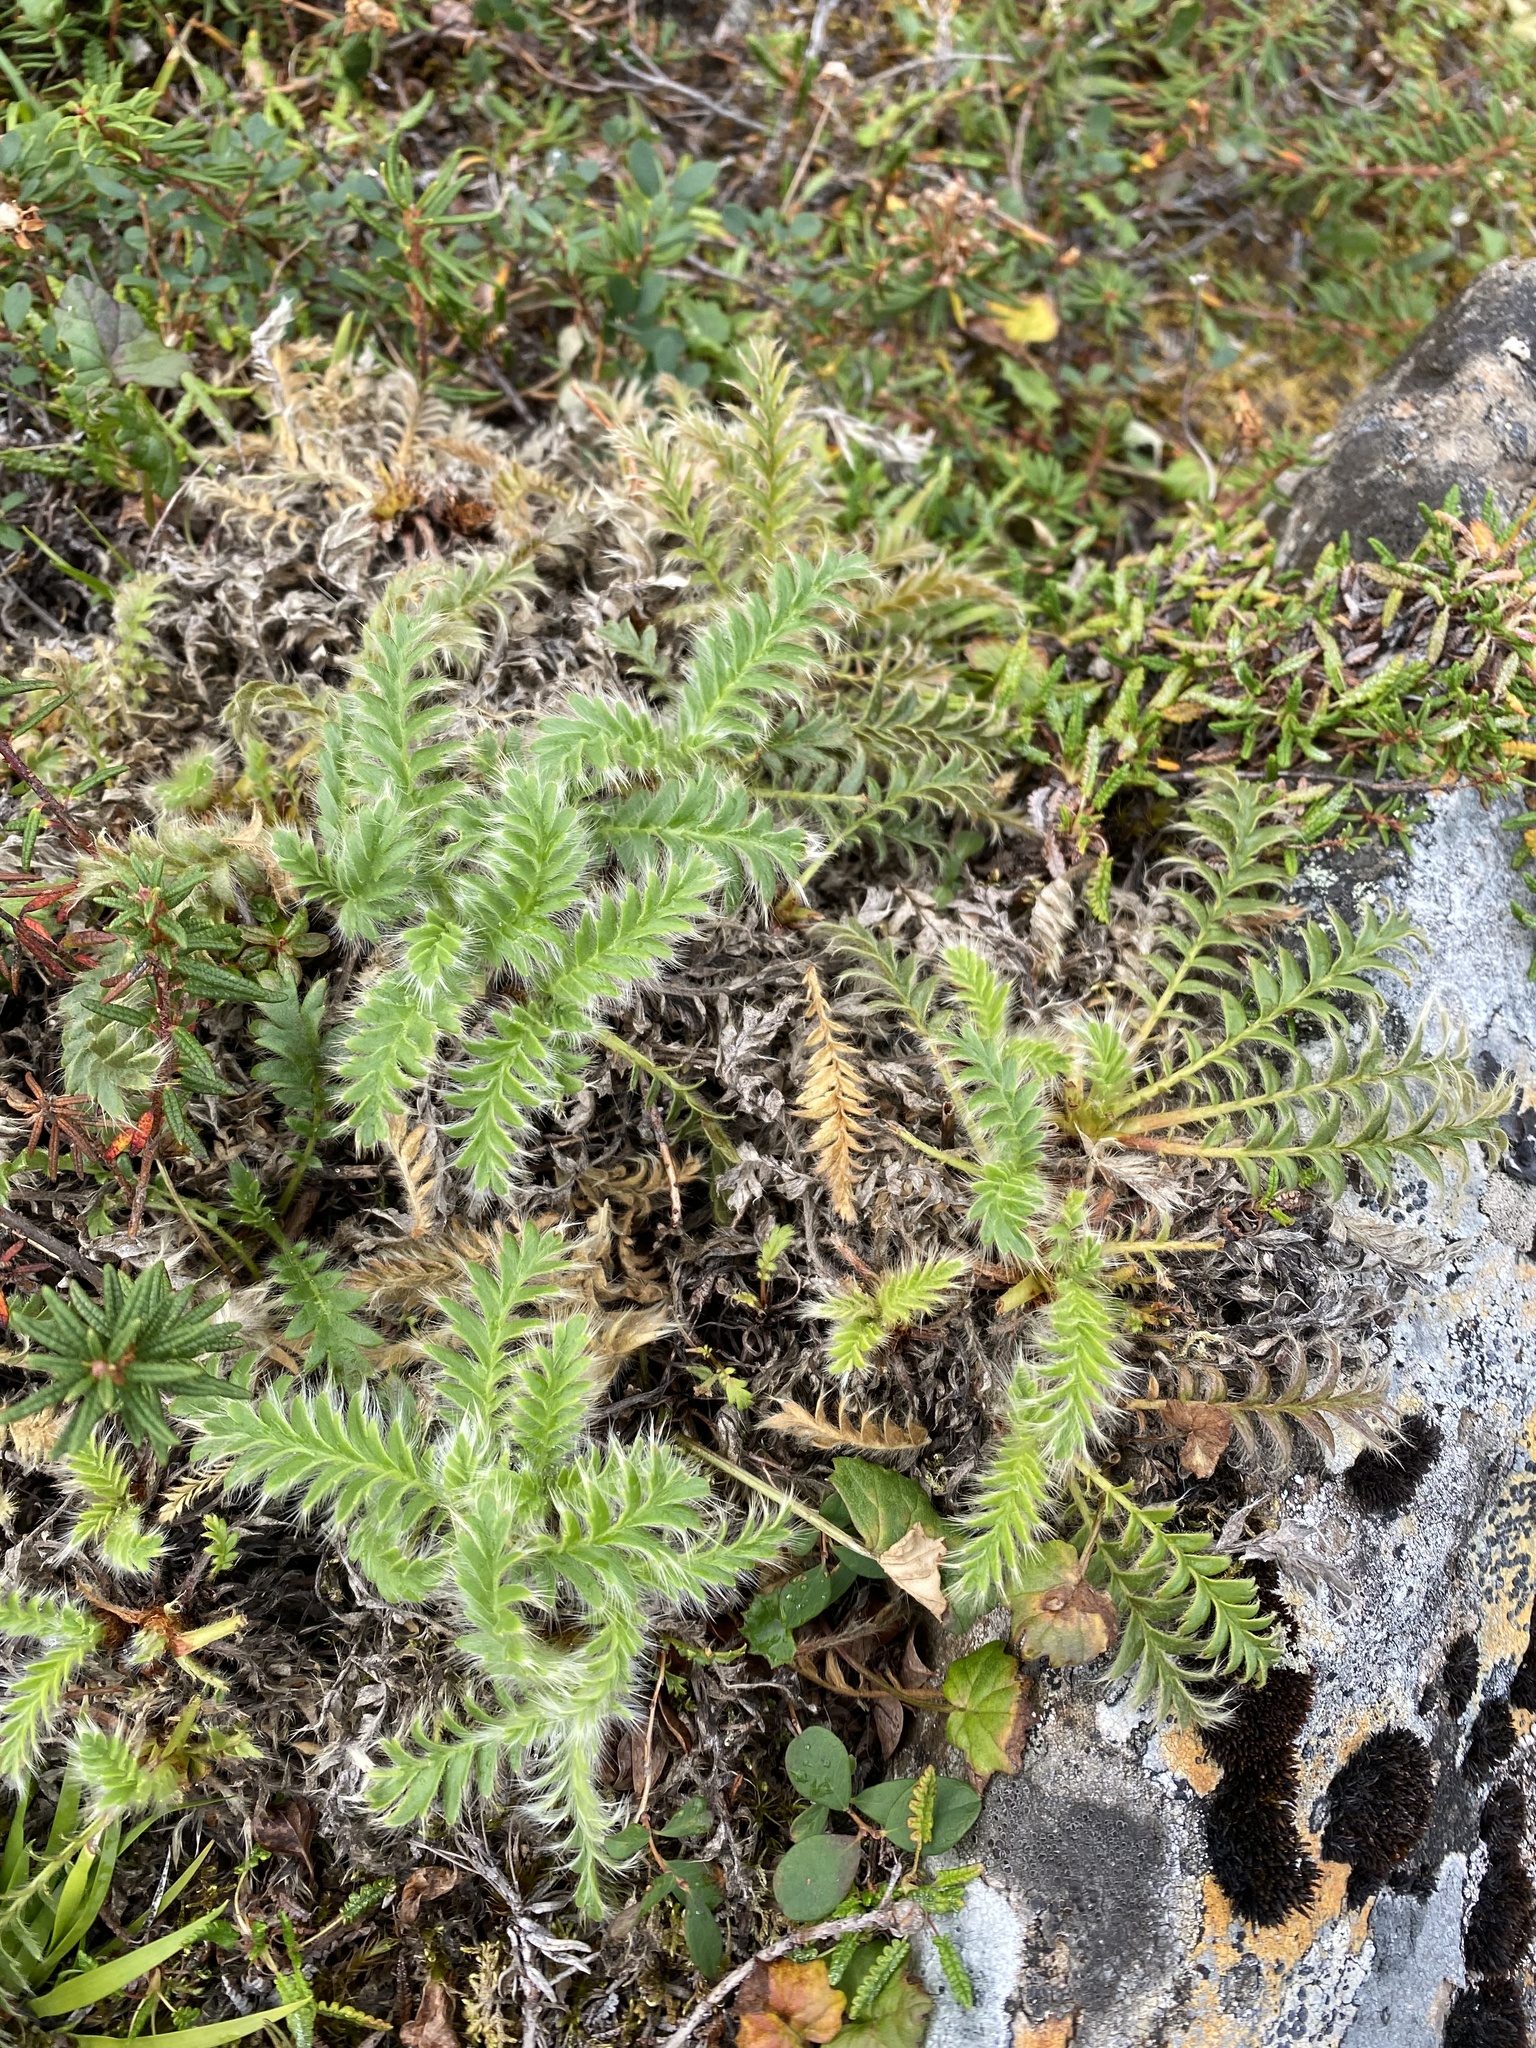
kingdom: Plantae
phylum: Tracheophyta
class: Magnoliopsida
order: Rosales
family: Rosaceae
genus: Geum
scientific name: Geum glaciale
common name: Glacier avens
